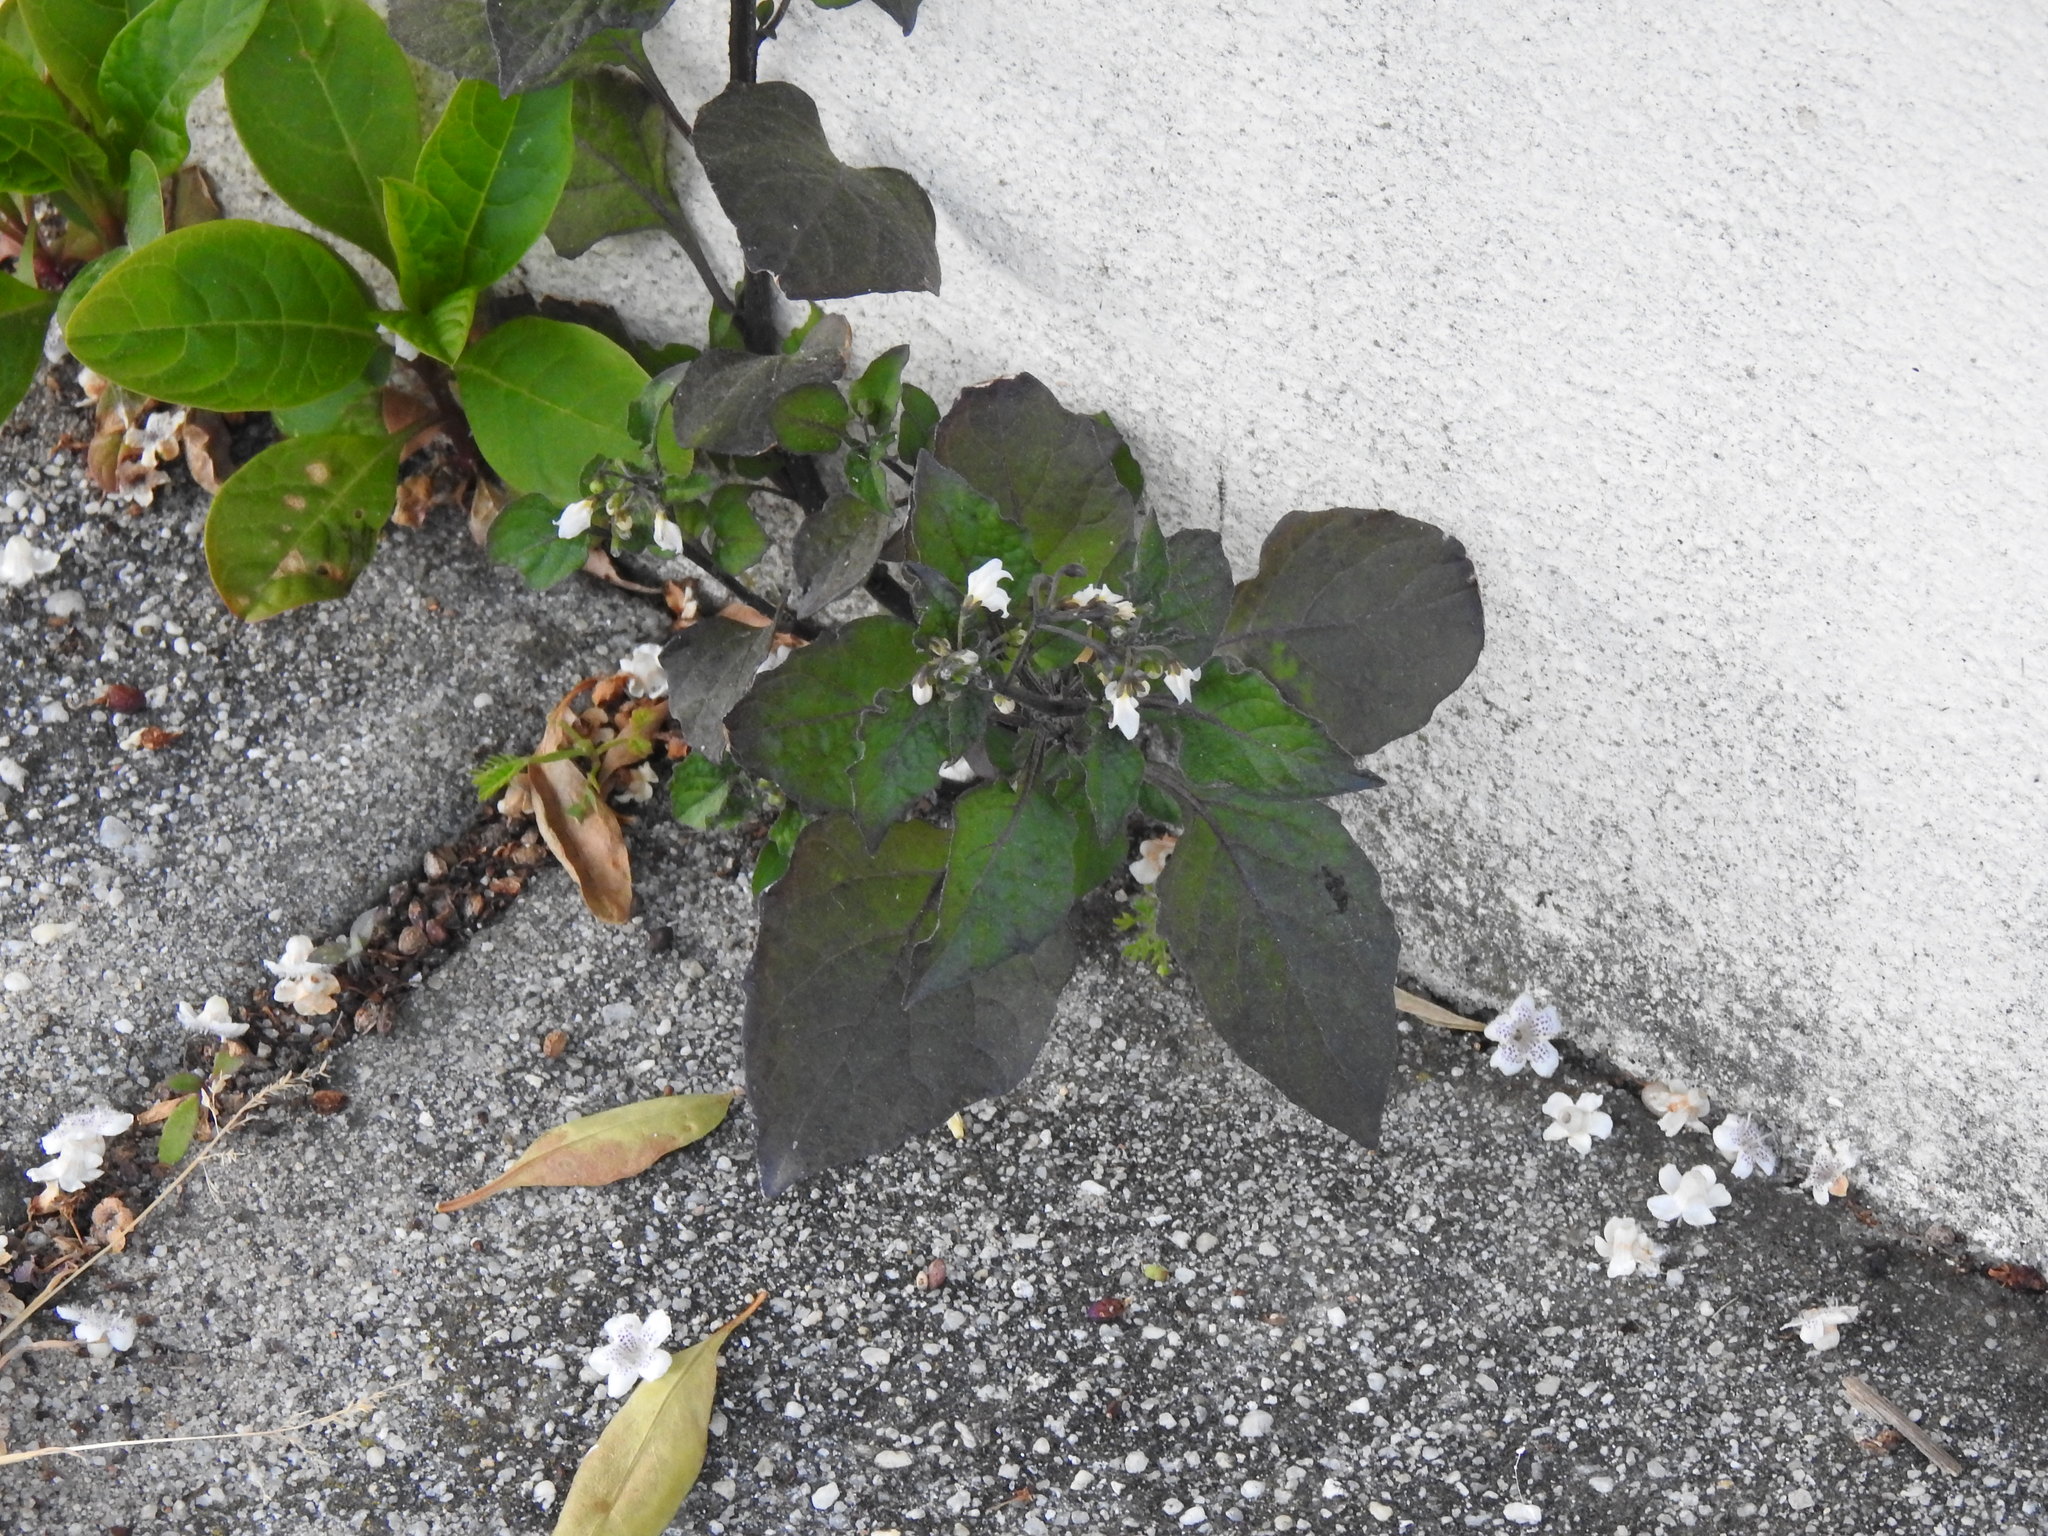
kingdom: Plantae
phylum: Tracheophyta
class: Magnoliopsida
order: Solanales
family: Solanaceae
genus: Solanum
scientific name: Solanum nigrum
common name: Black nightshade
